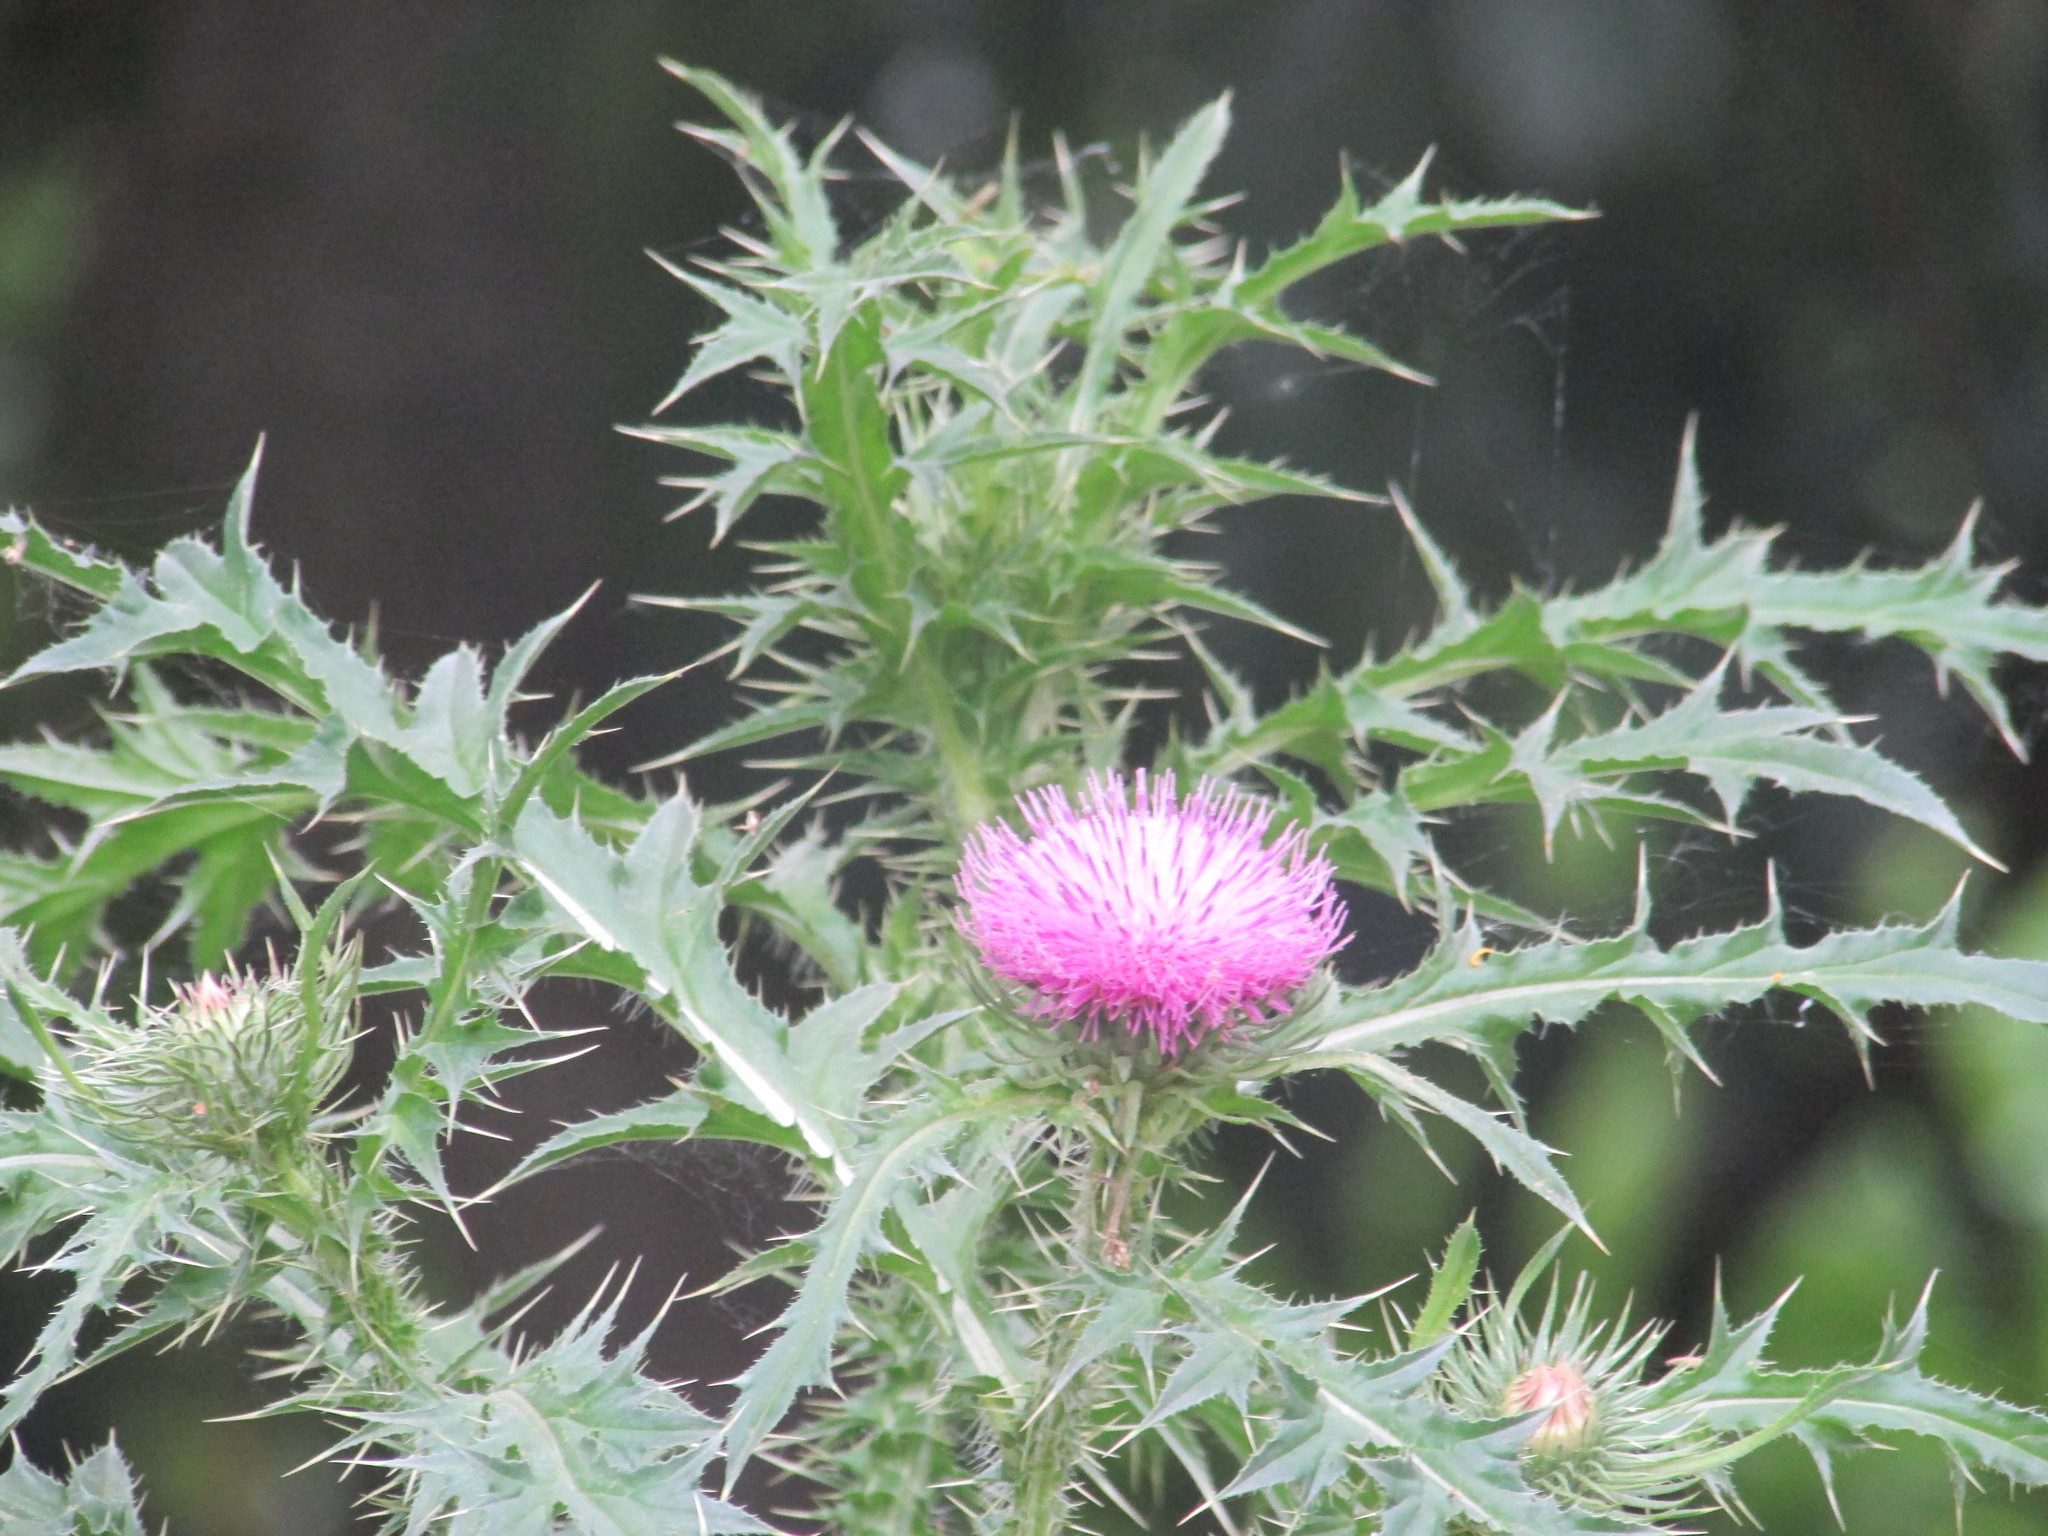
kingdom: Plantae
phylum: Tracheophyta
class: Magnoliopsida
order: Asterales
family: Asteraceae
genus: Carduus
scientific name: Carduus acanthoides
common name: Plumeless thistle
